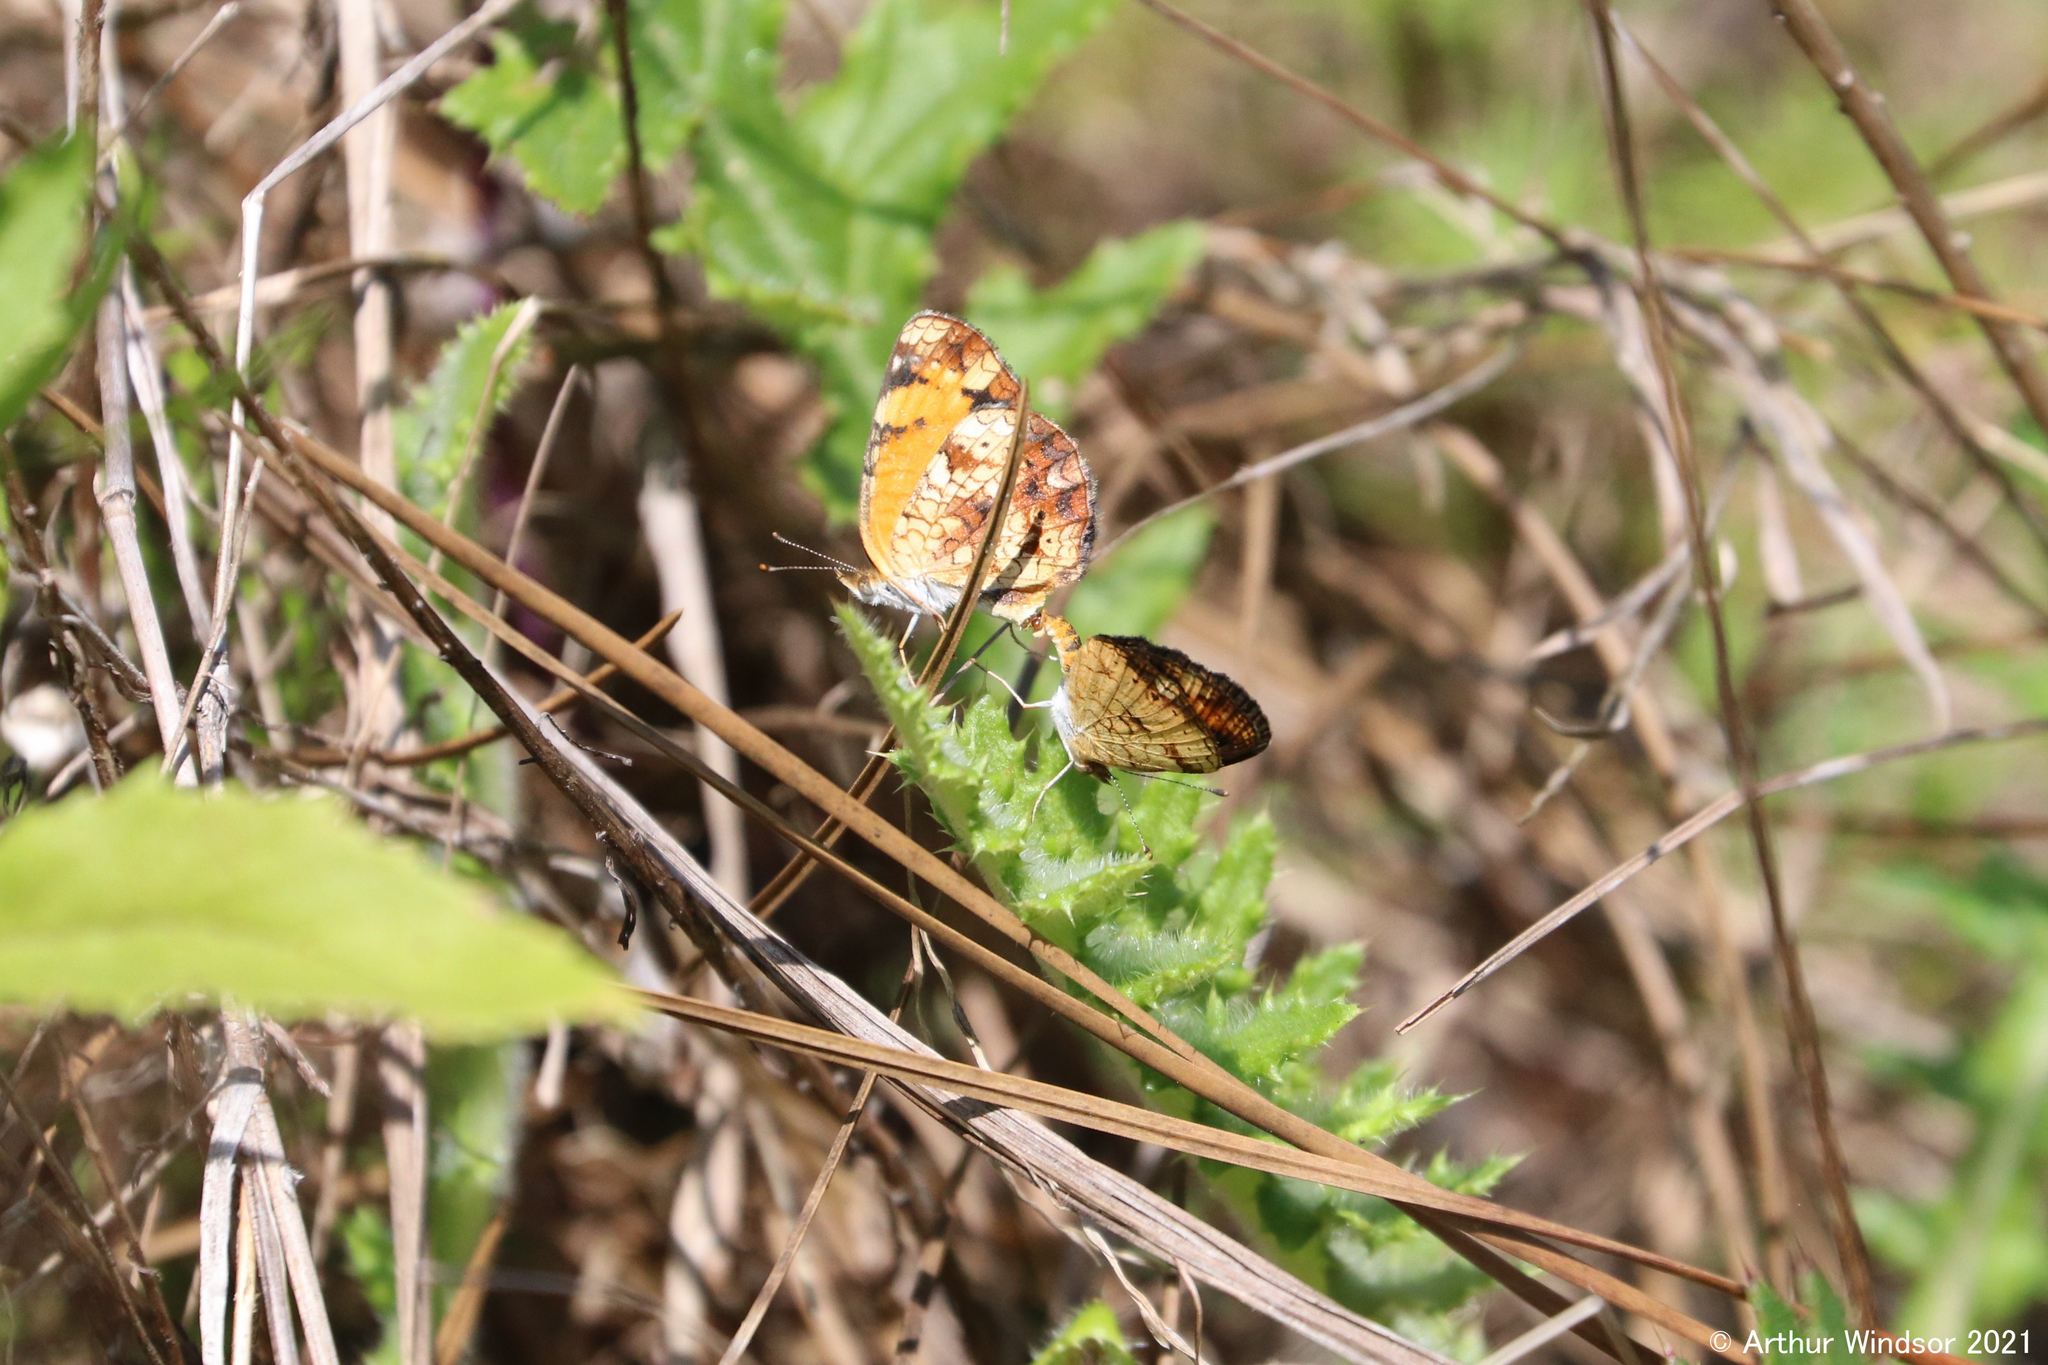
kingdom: Animalia
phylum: Arthropoda
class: Insecta
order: Lepidoptera
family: Nymphalidae
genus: Phyciodes
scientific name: Phyciodes tharos
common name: Pearl crescent
